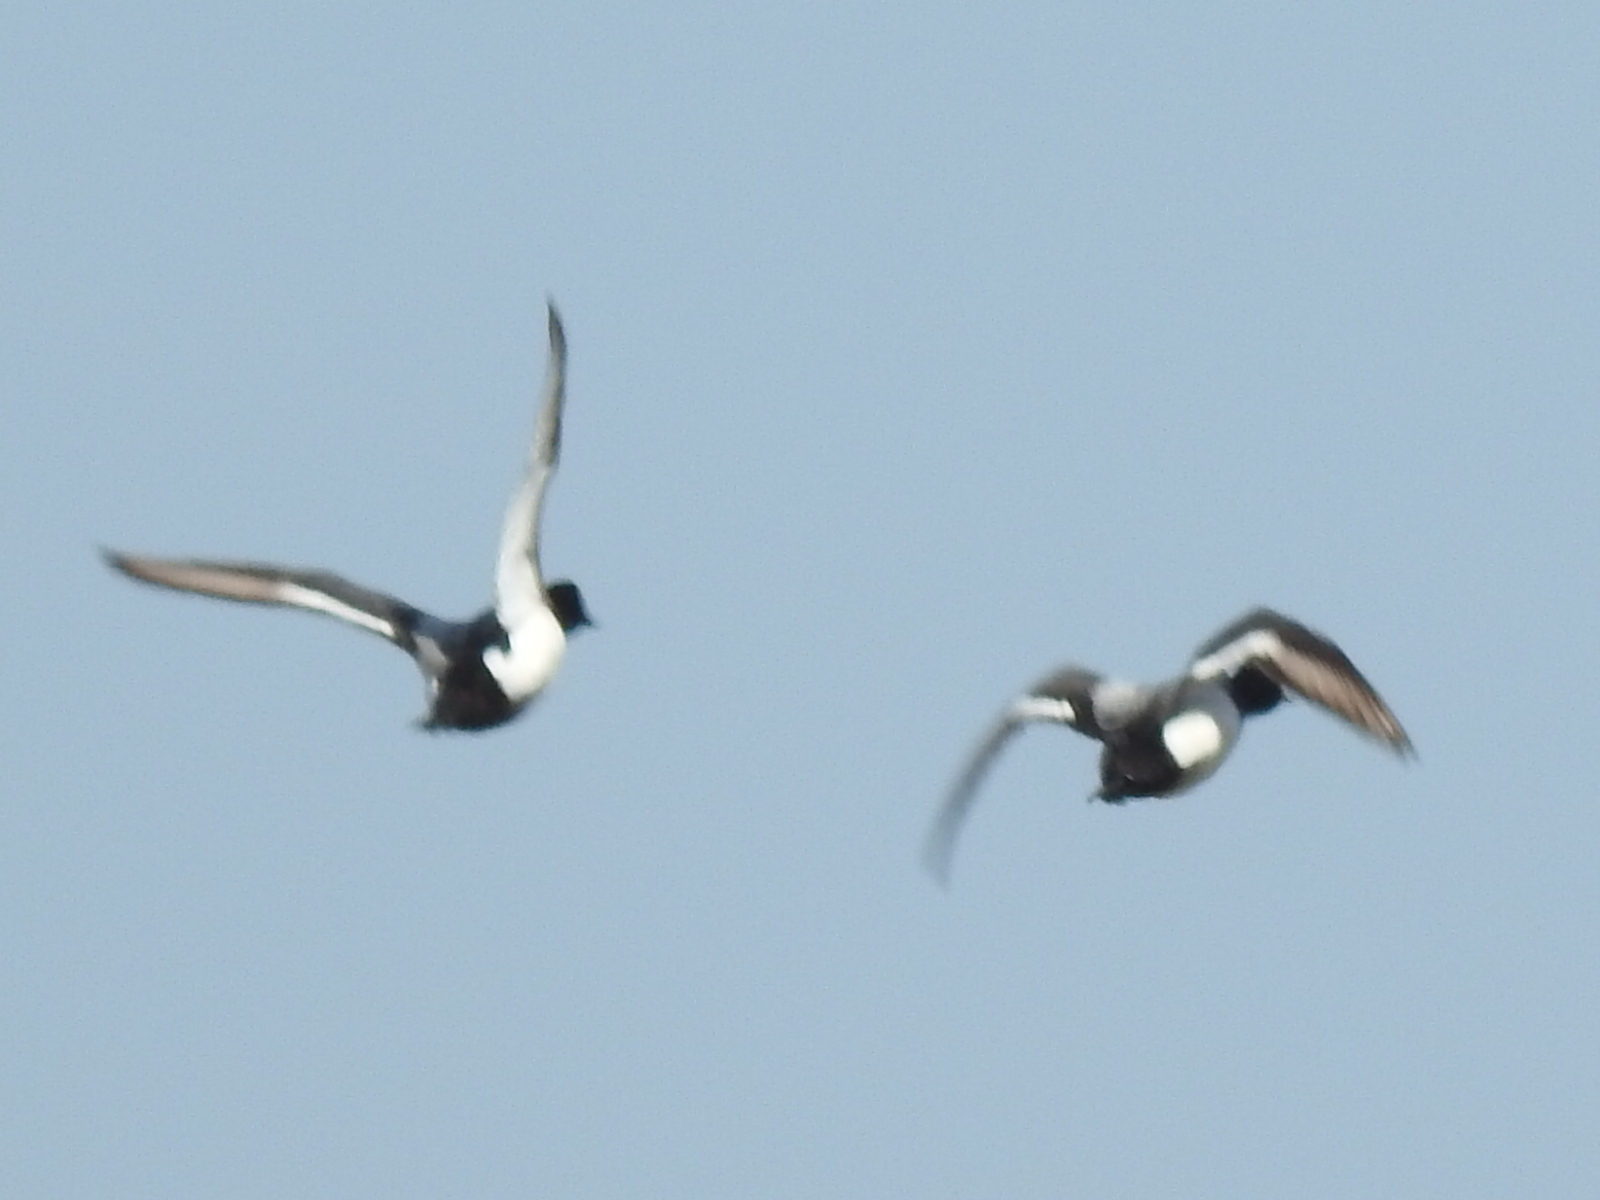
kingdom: Animalia
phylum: Chordata
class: Aves
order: Anseriformes
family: Anatidae
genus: Aythya
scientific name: Aythya affinis
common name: Lesser scaup
